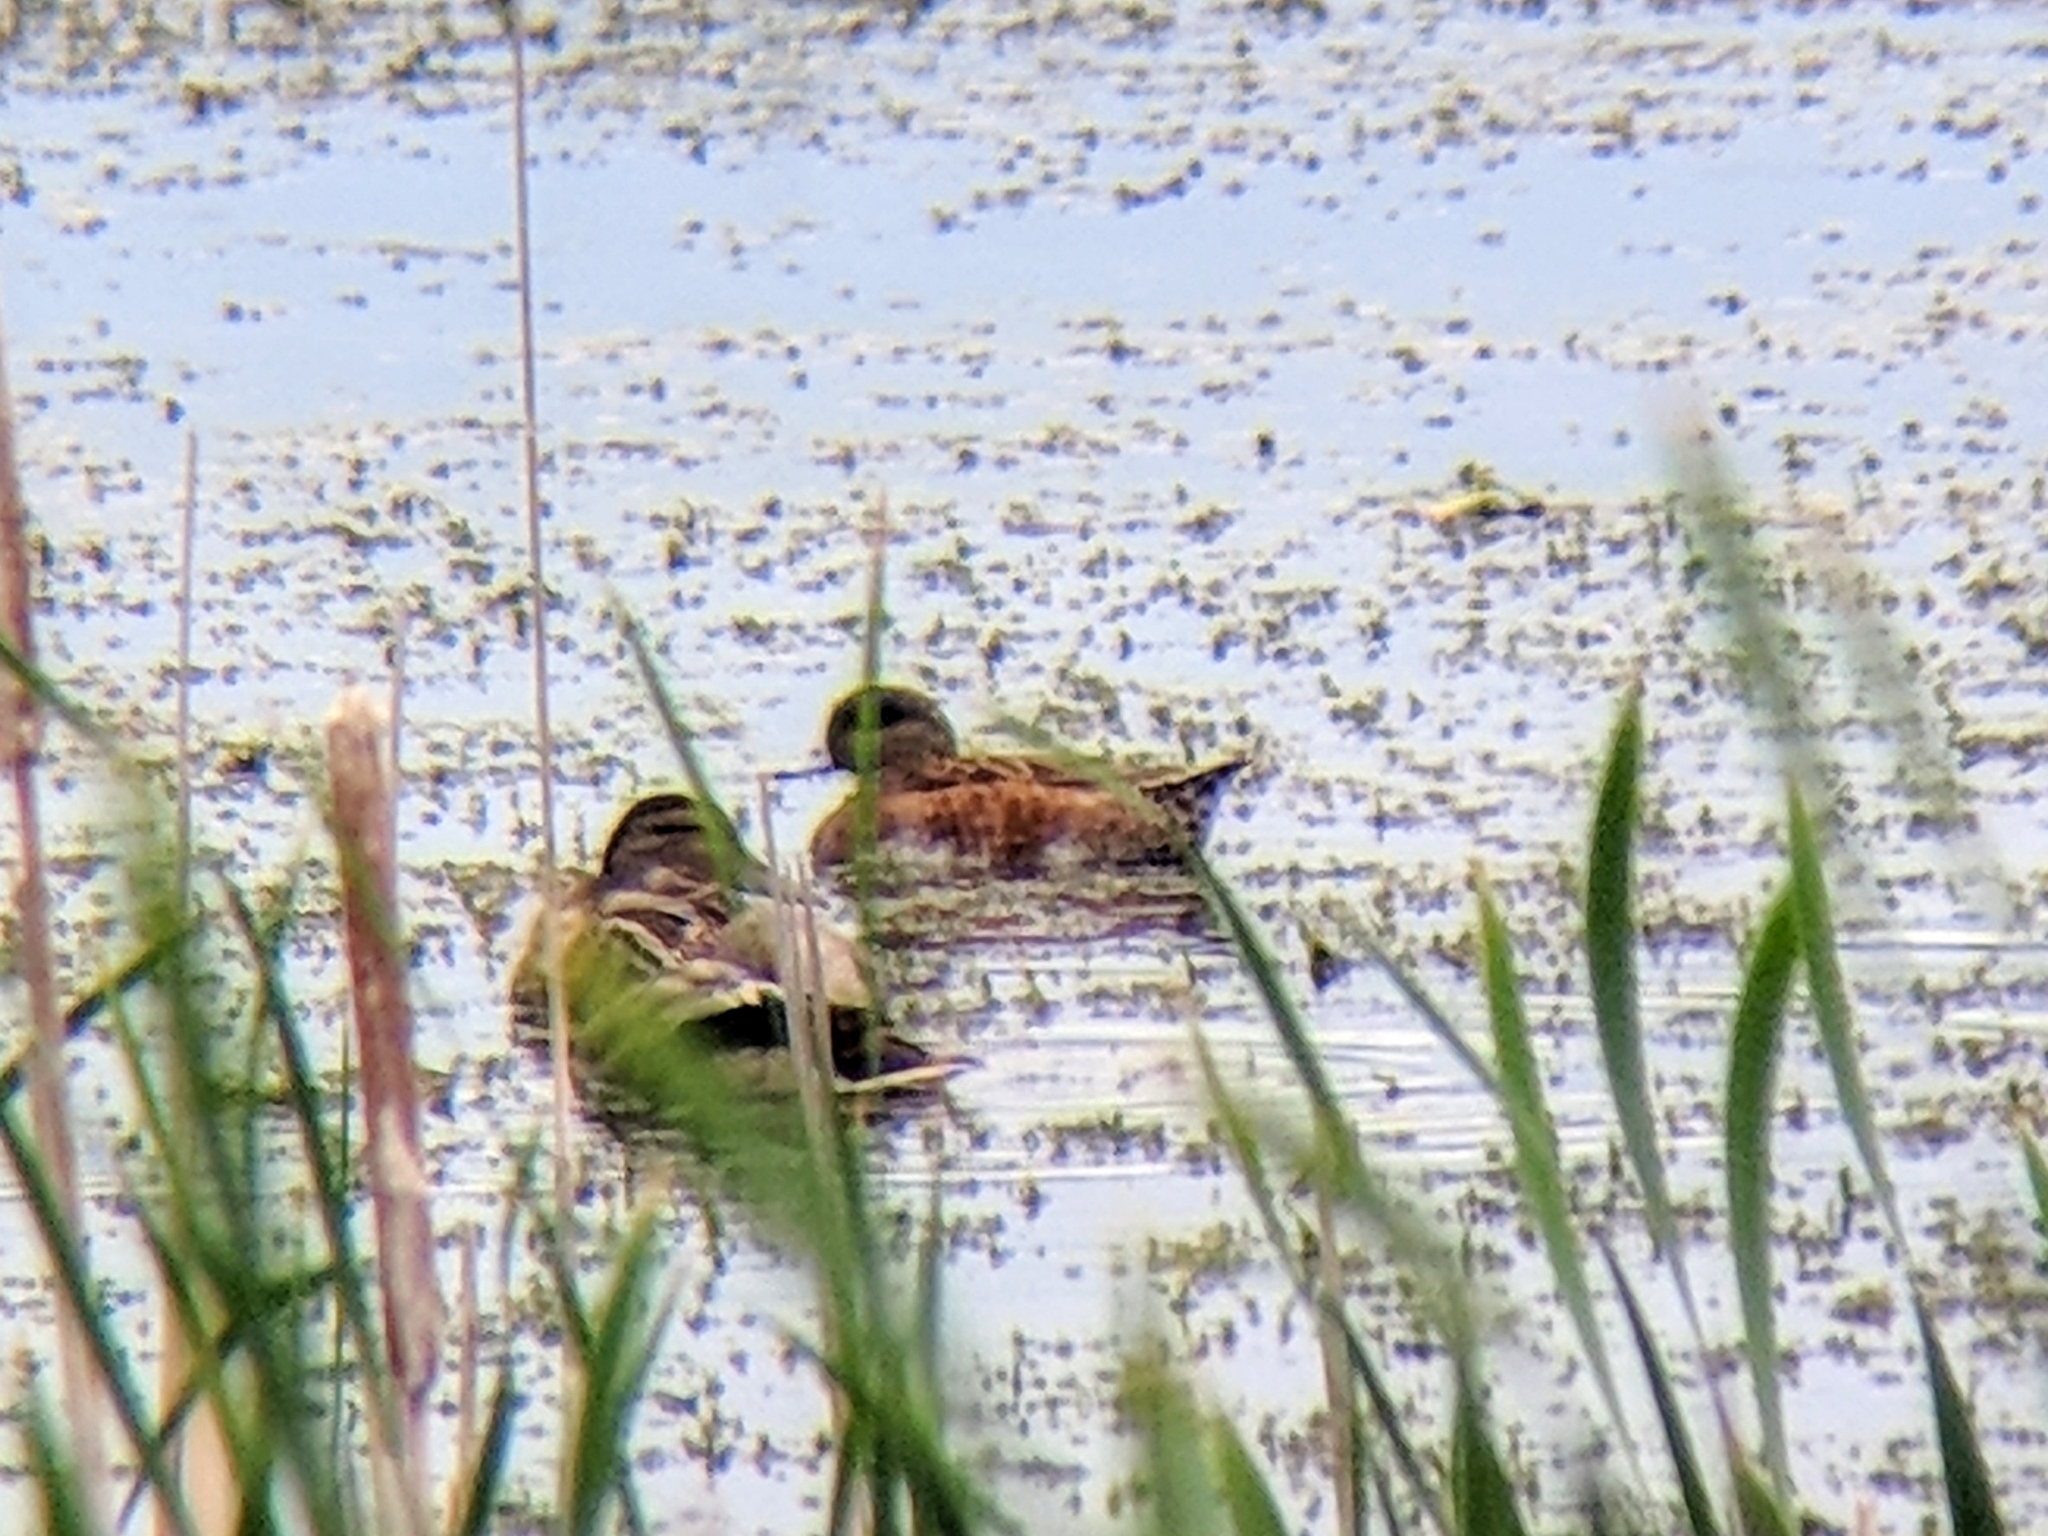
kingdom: Animalia
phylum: Chordata
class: Aves
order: Anseriformes
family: Anatidae
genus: Mareca
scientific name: Mareca americana
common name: American wigeon
